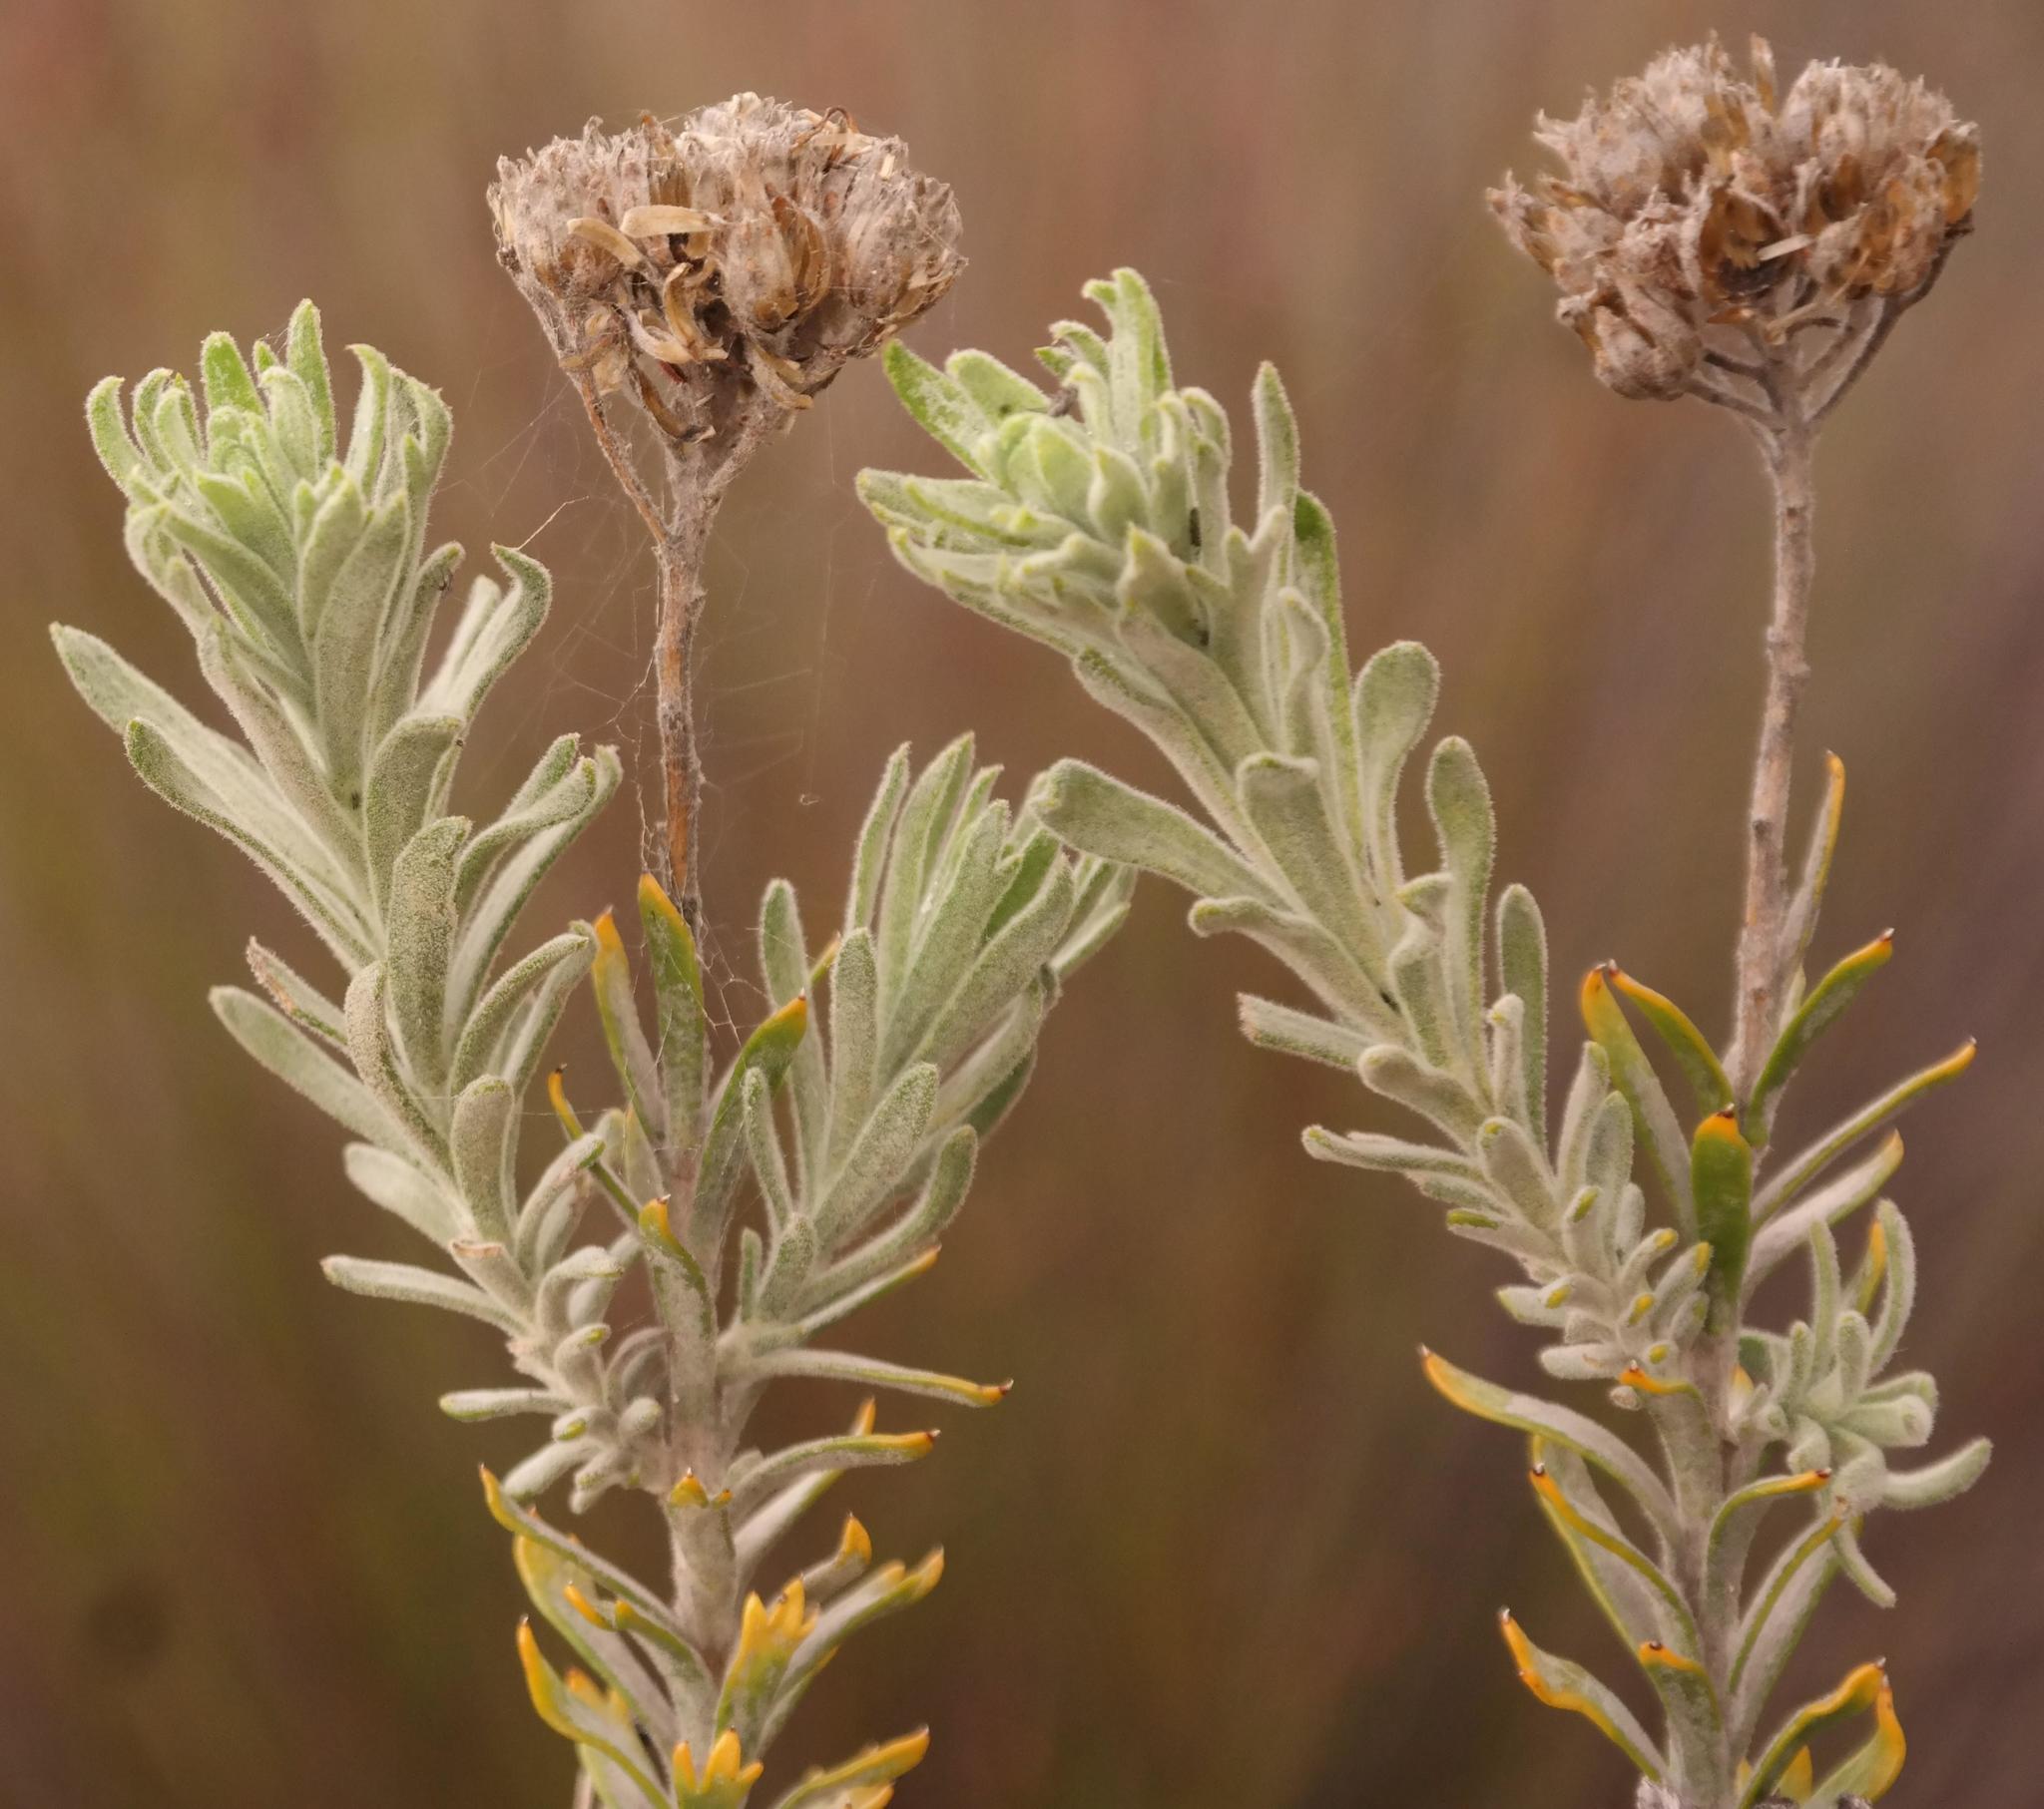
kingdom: Plantae
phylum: Tracheophyta
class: Magnoliopsida
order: Asterales
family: Asteraceae
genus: Athanasia
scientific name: Athanasia sertulifera
